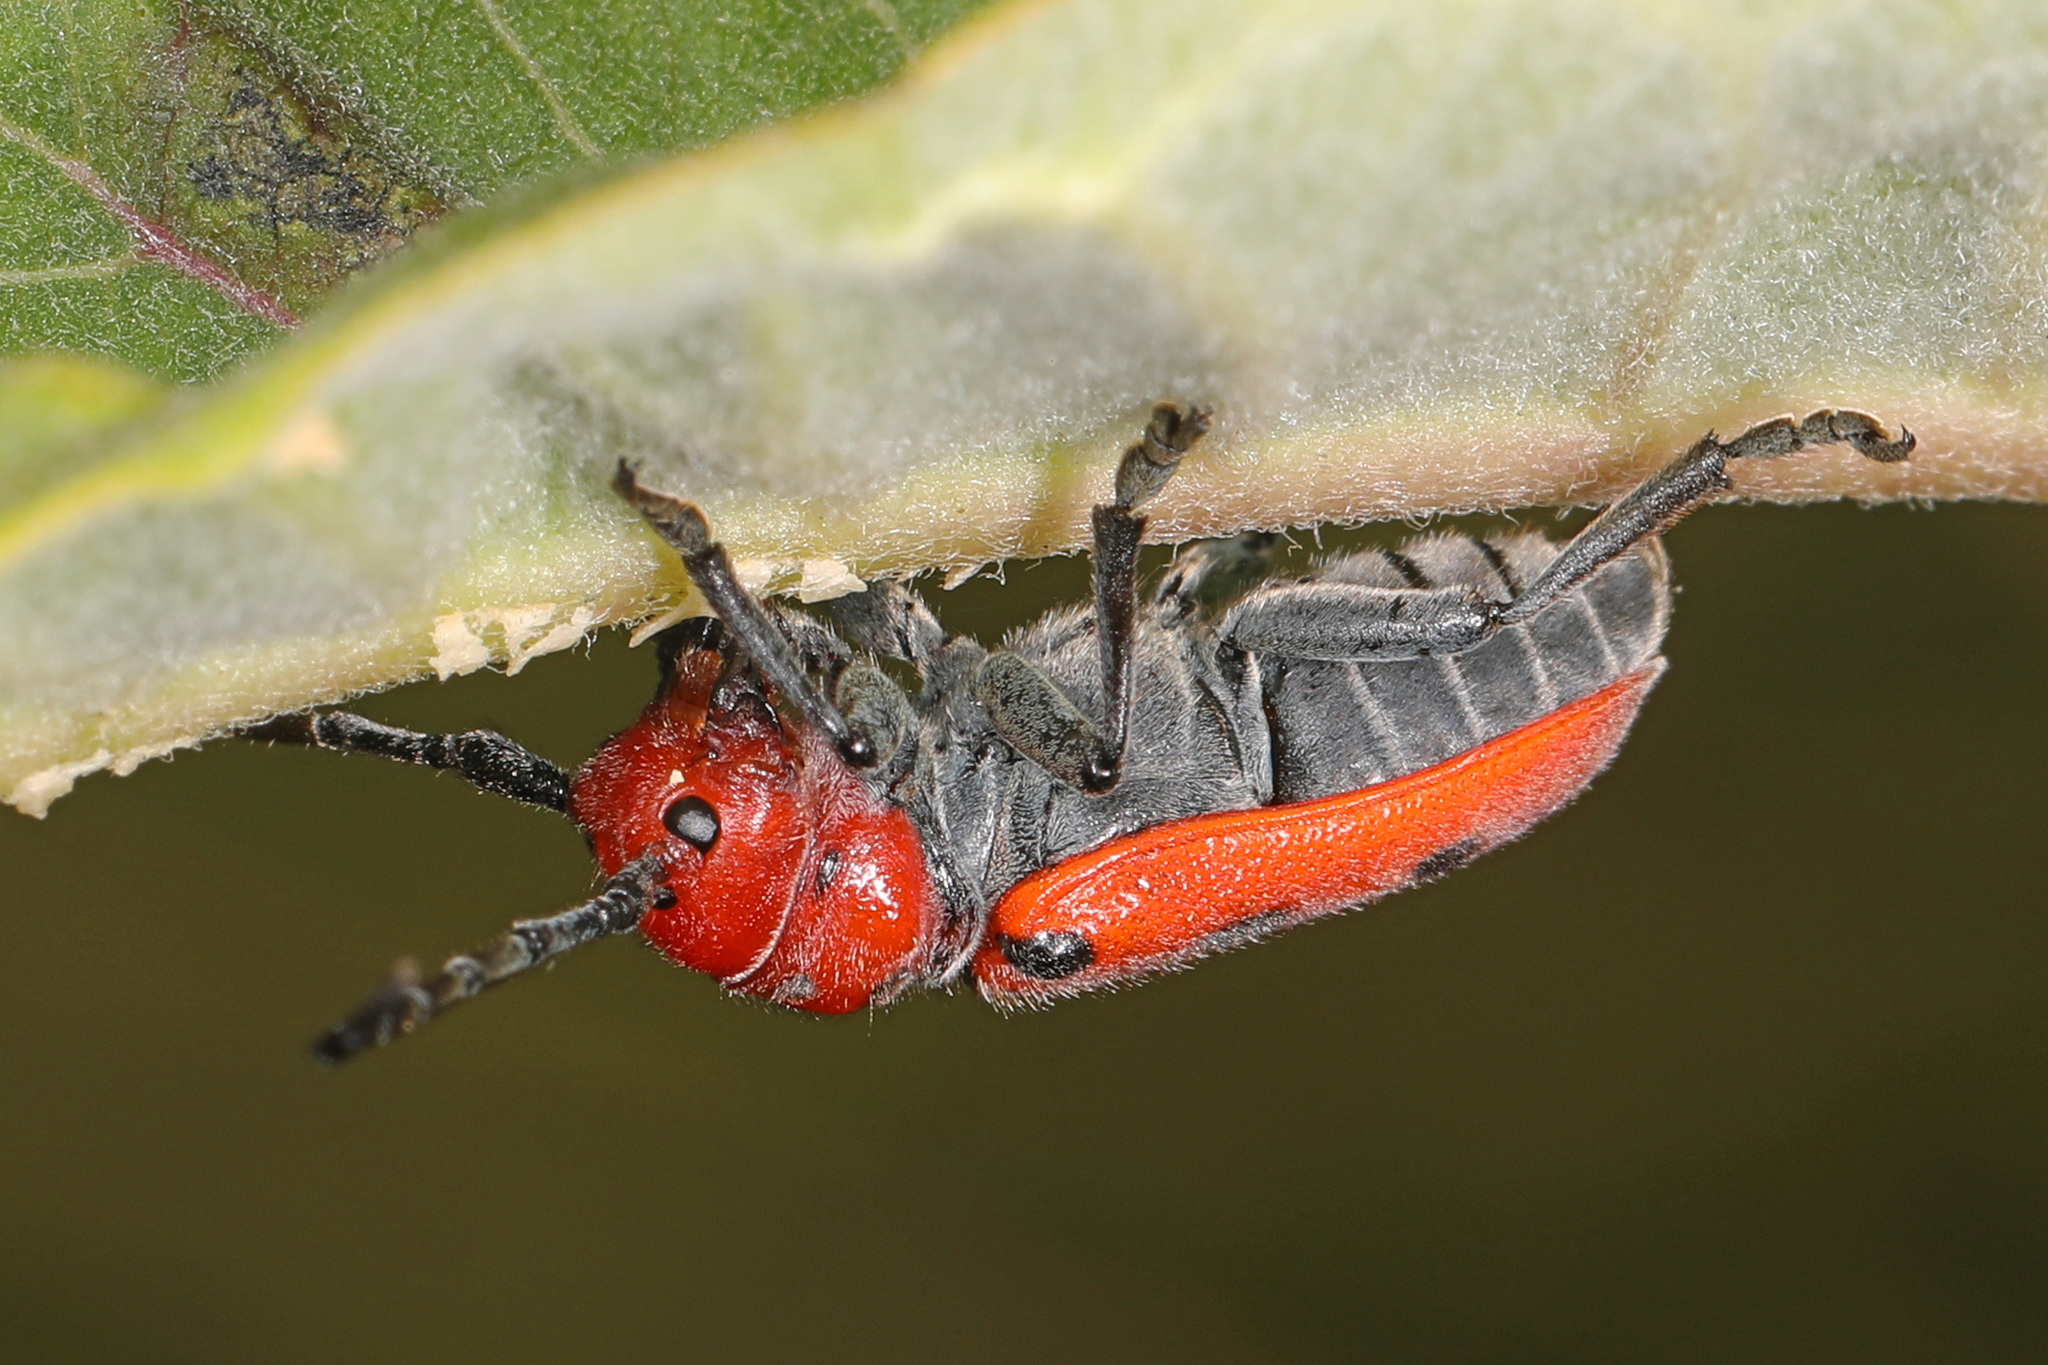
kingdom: Animalia
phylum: Arthropoda
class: Insecta
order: Coleoptera
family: Cerambycidae
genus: Tetraopes
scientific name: Tetraopes tetrophthalmus
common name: Red milkweed beetle
